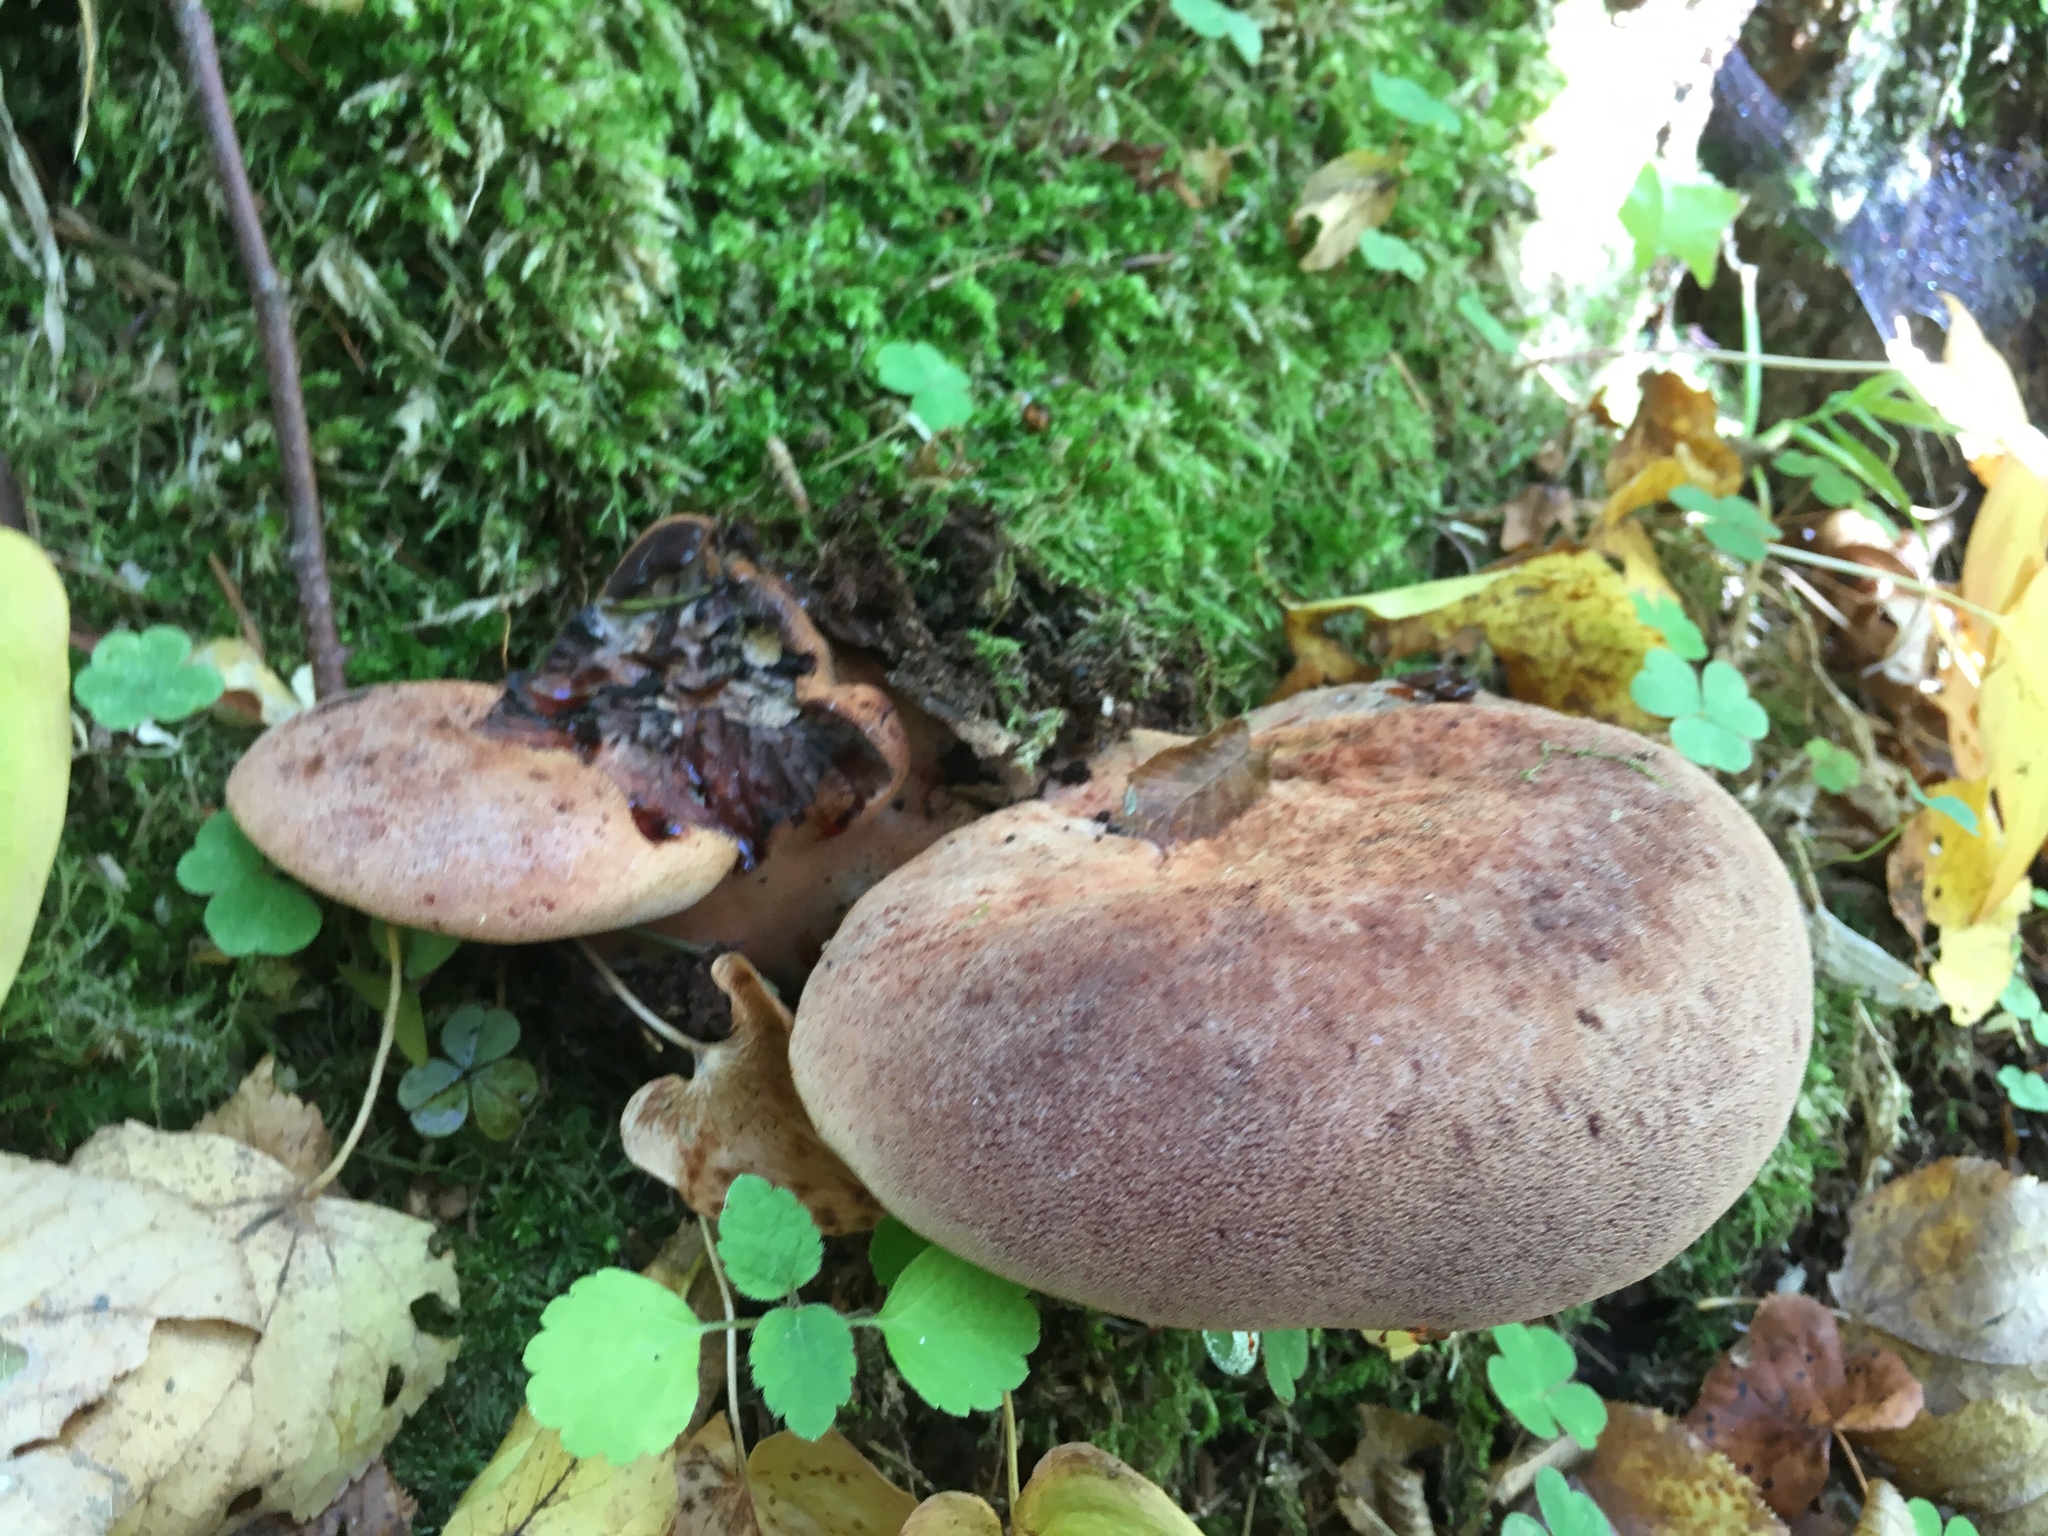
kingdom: Fungi
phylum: Basidiomycota
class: Agaricomycetes
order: Agaricales
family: Fistulinaceae
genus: Fistulina
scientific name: Fistulina hepatica
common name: Beef-steak fungus
